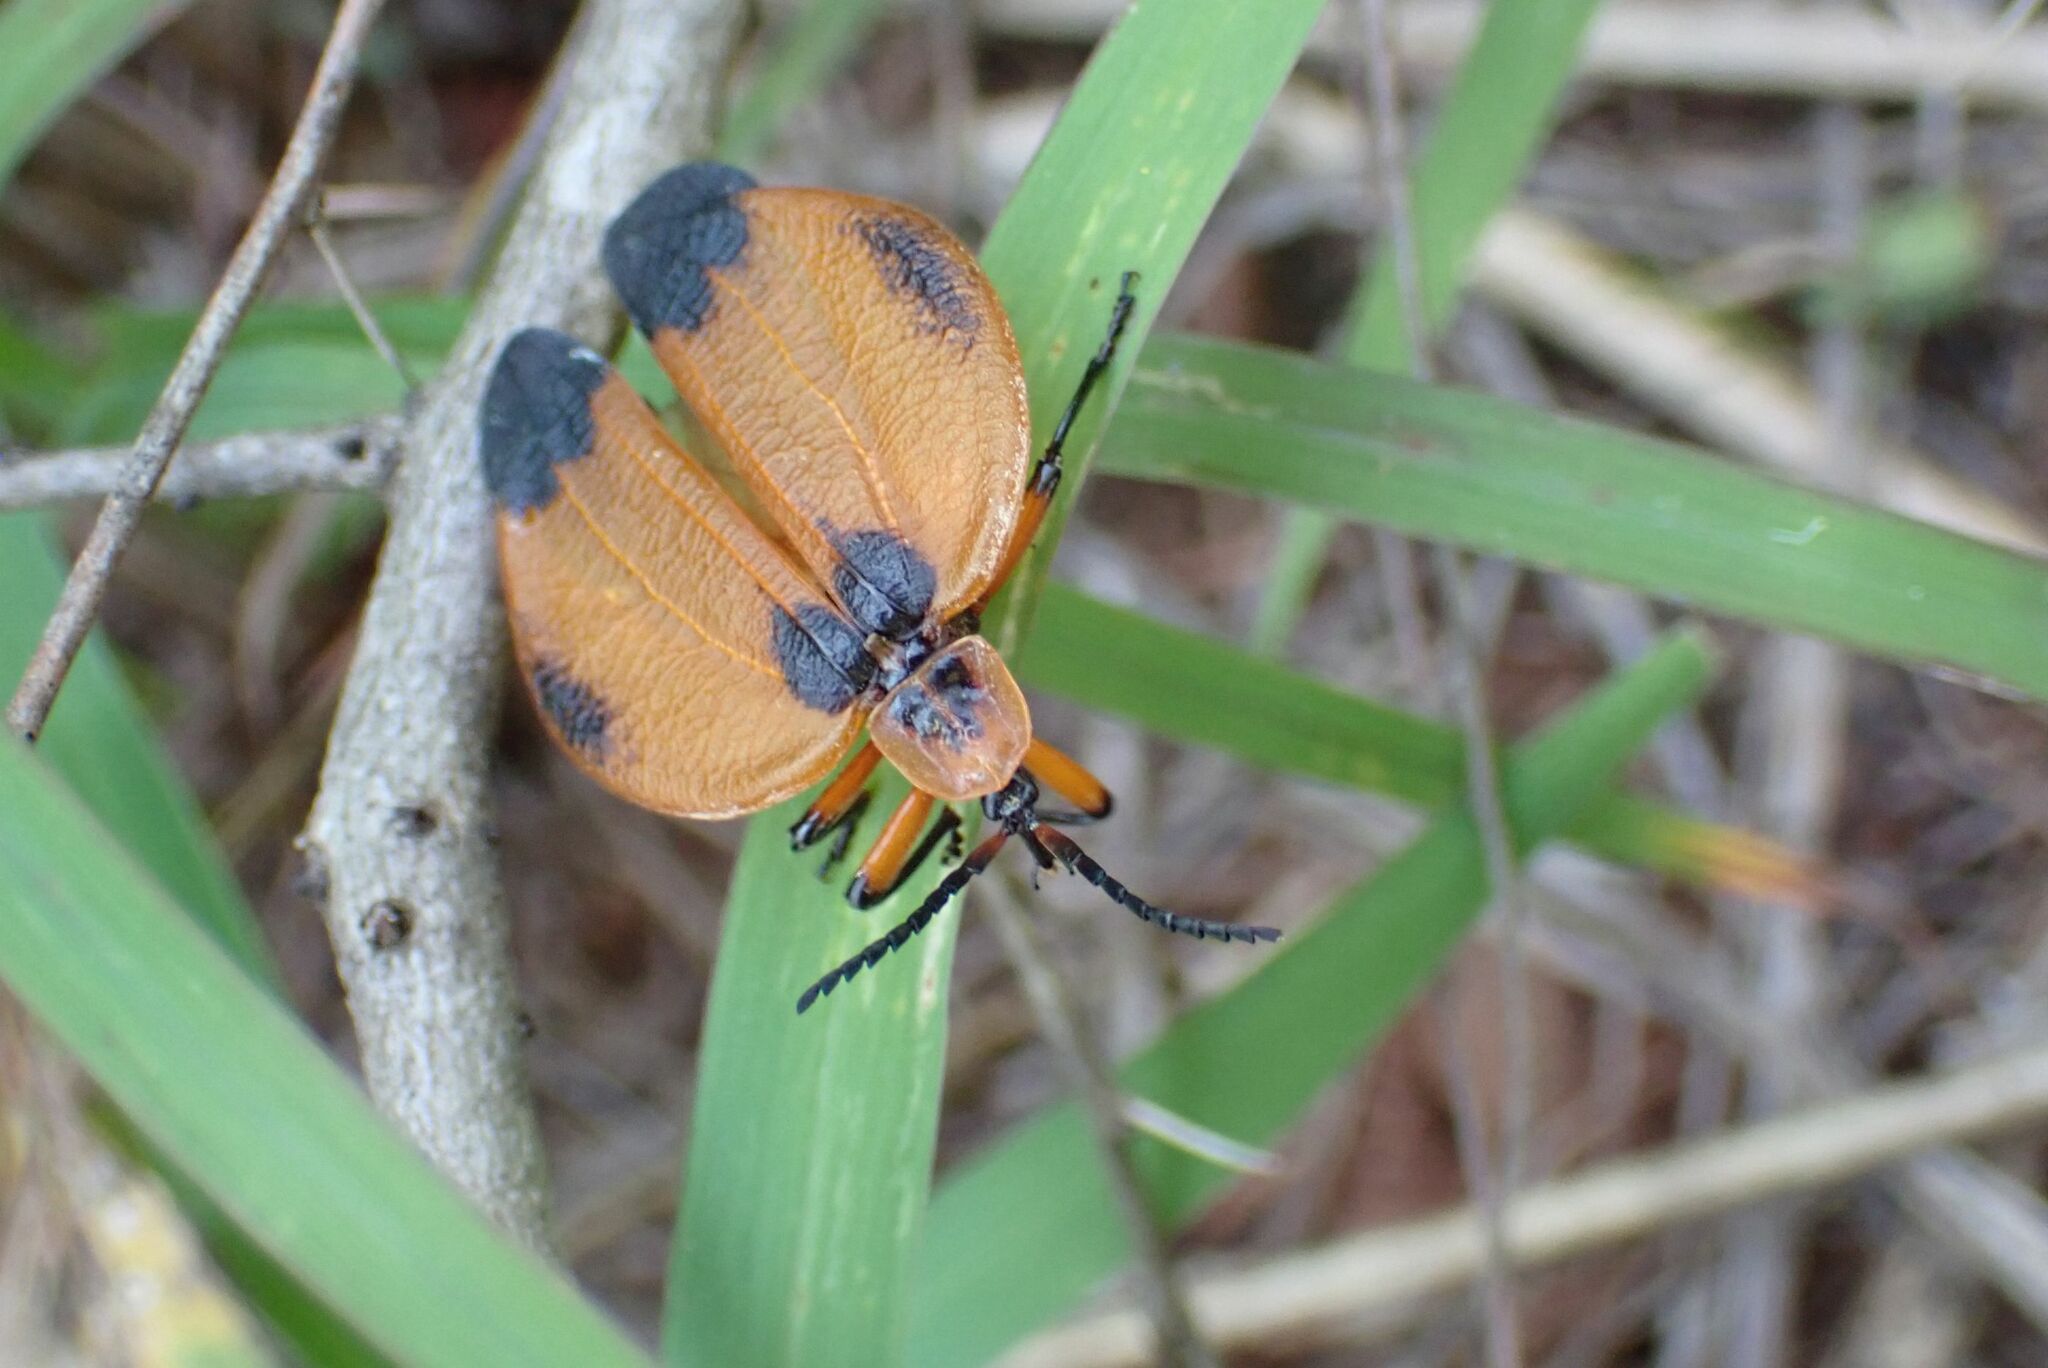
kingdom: Animalia
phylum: Arthropoda
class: Insecta
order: Coleoptera
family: Lycidae
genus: Lycus
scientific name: Lycus
